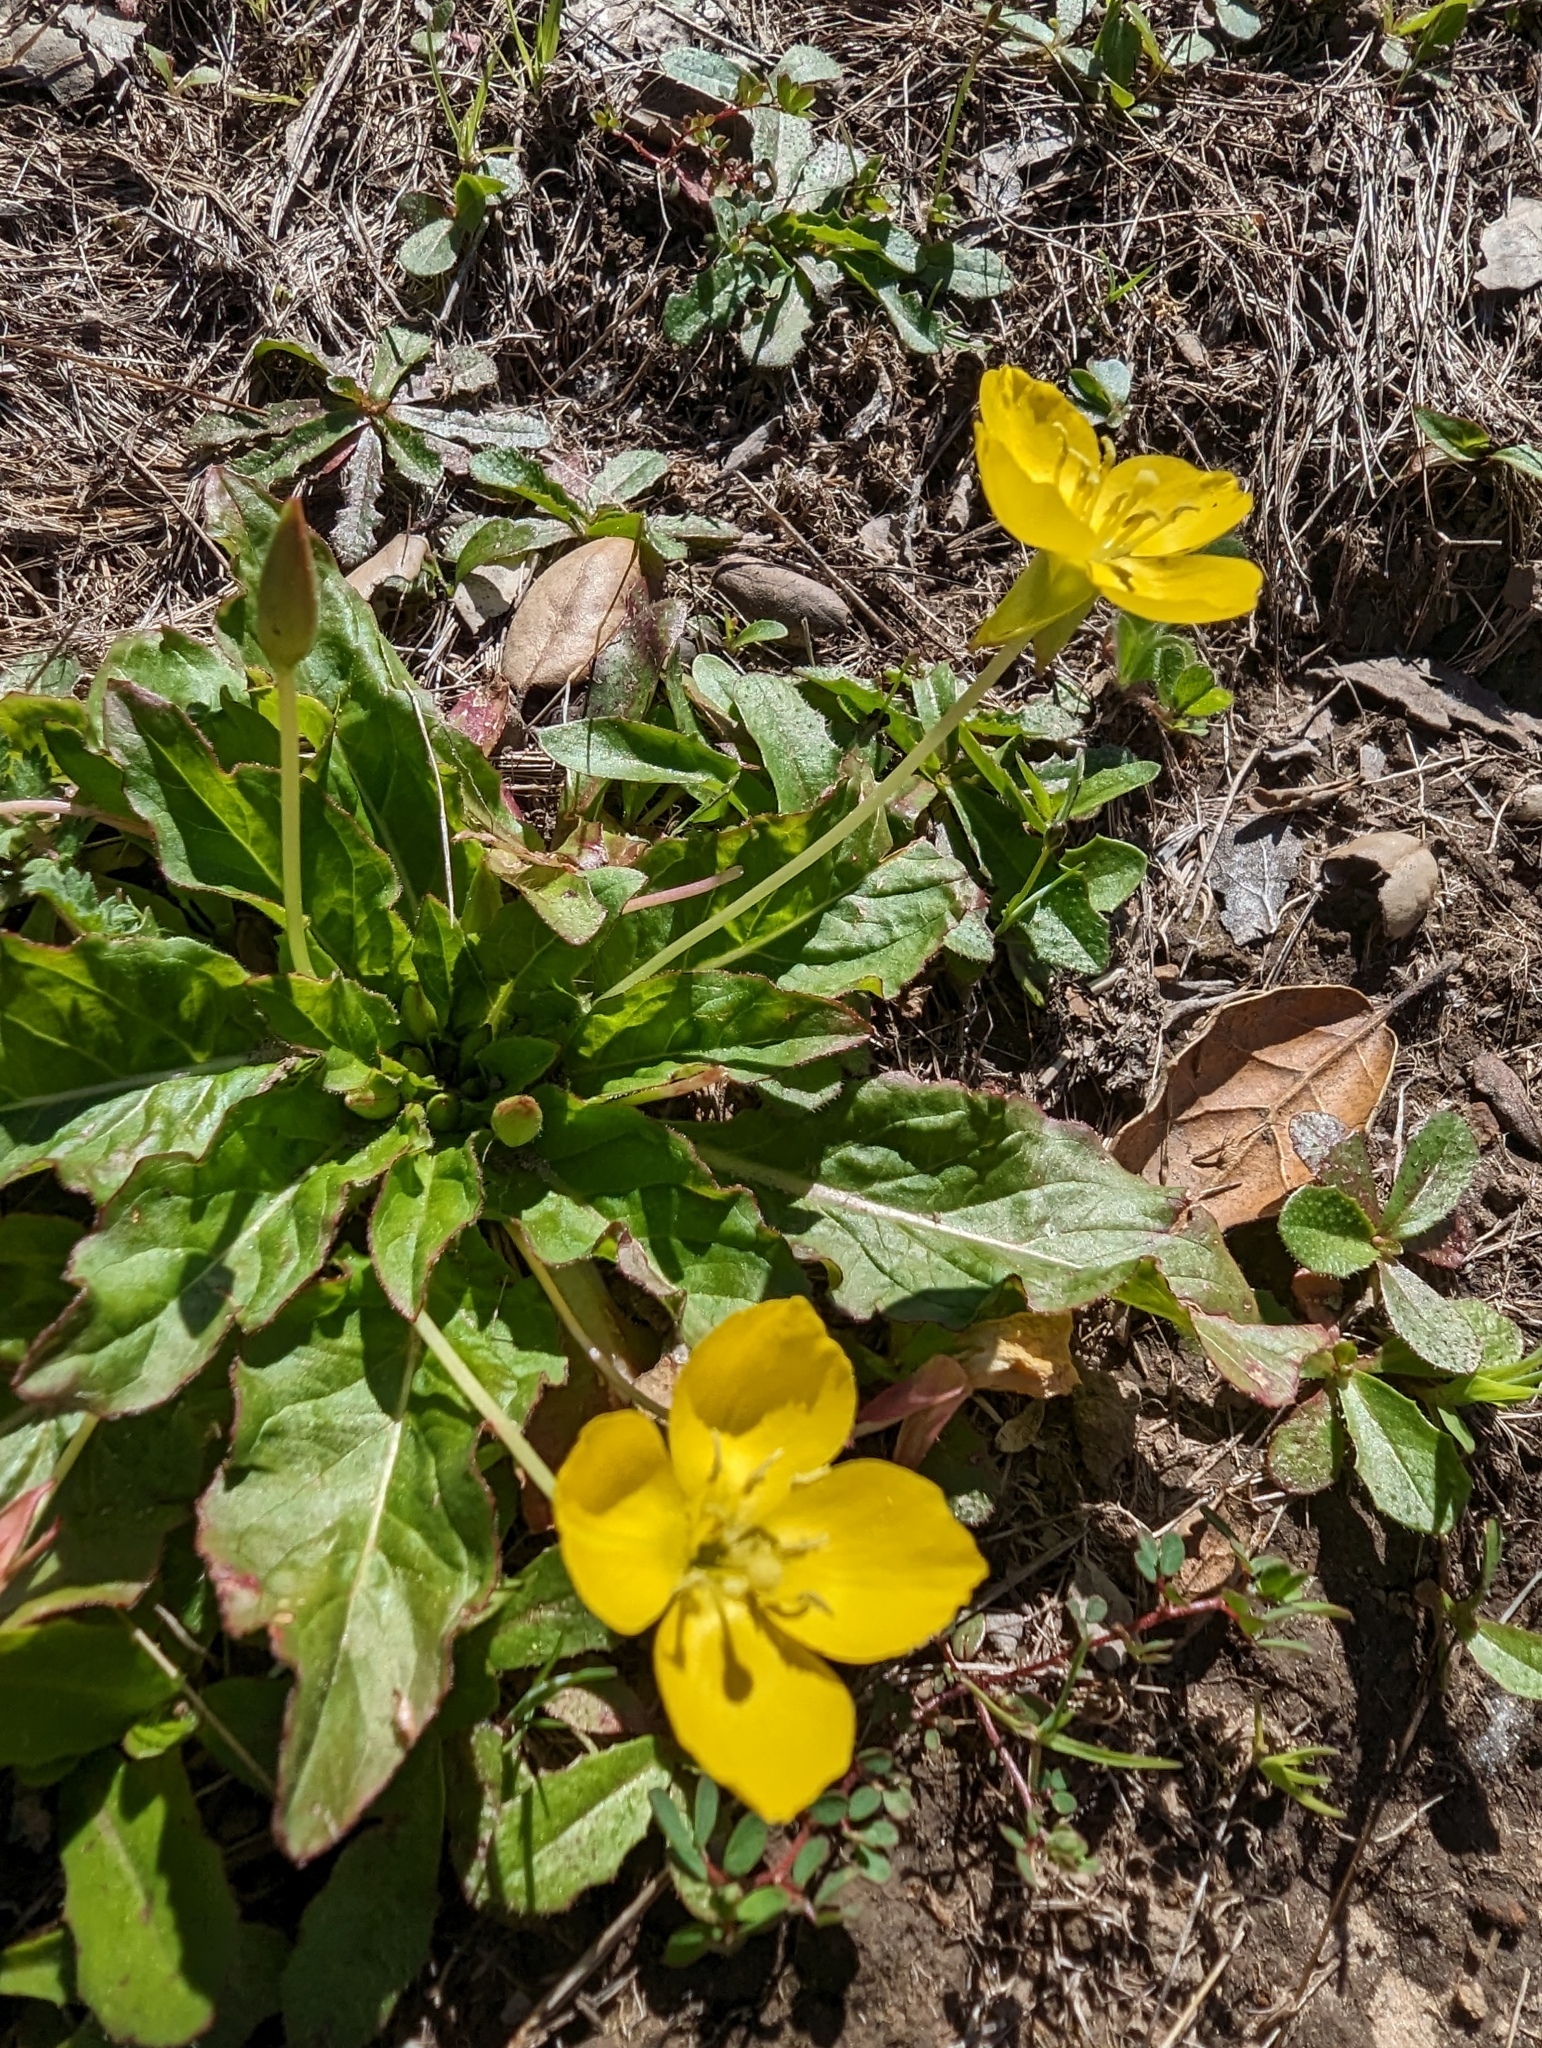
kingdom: Plantae
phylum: Tracheophyta
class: Magnoliopsida
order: Myrtales
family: Onagraceae
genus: Taraxia
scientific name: Taraxia ovata
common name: Goldeneggs
